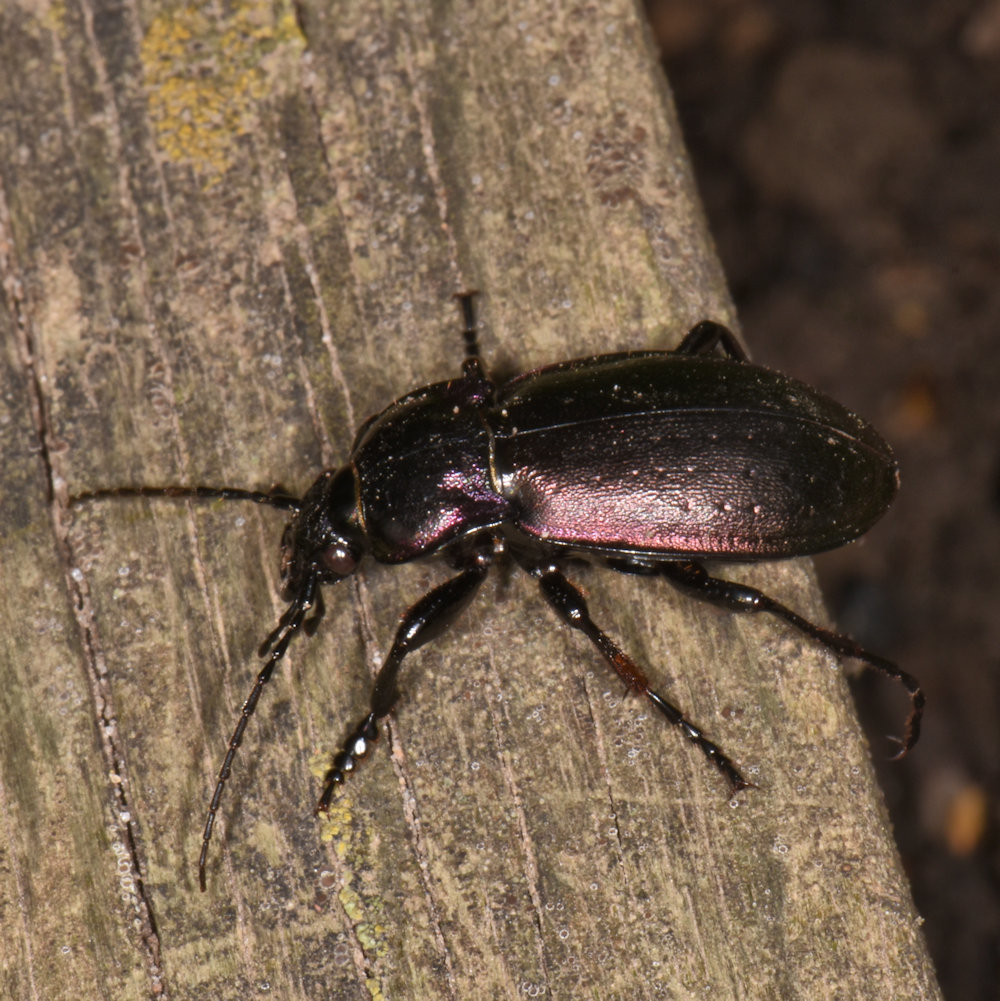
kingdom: Animalia
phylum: Arthropoda
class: Insecta
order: Coleoptera
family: Carabidae
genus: Carabus
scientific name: Carabus nemoralis
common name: European ground beetle
